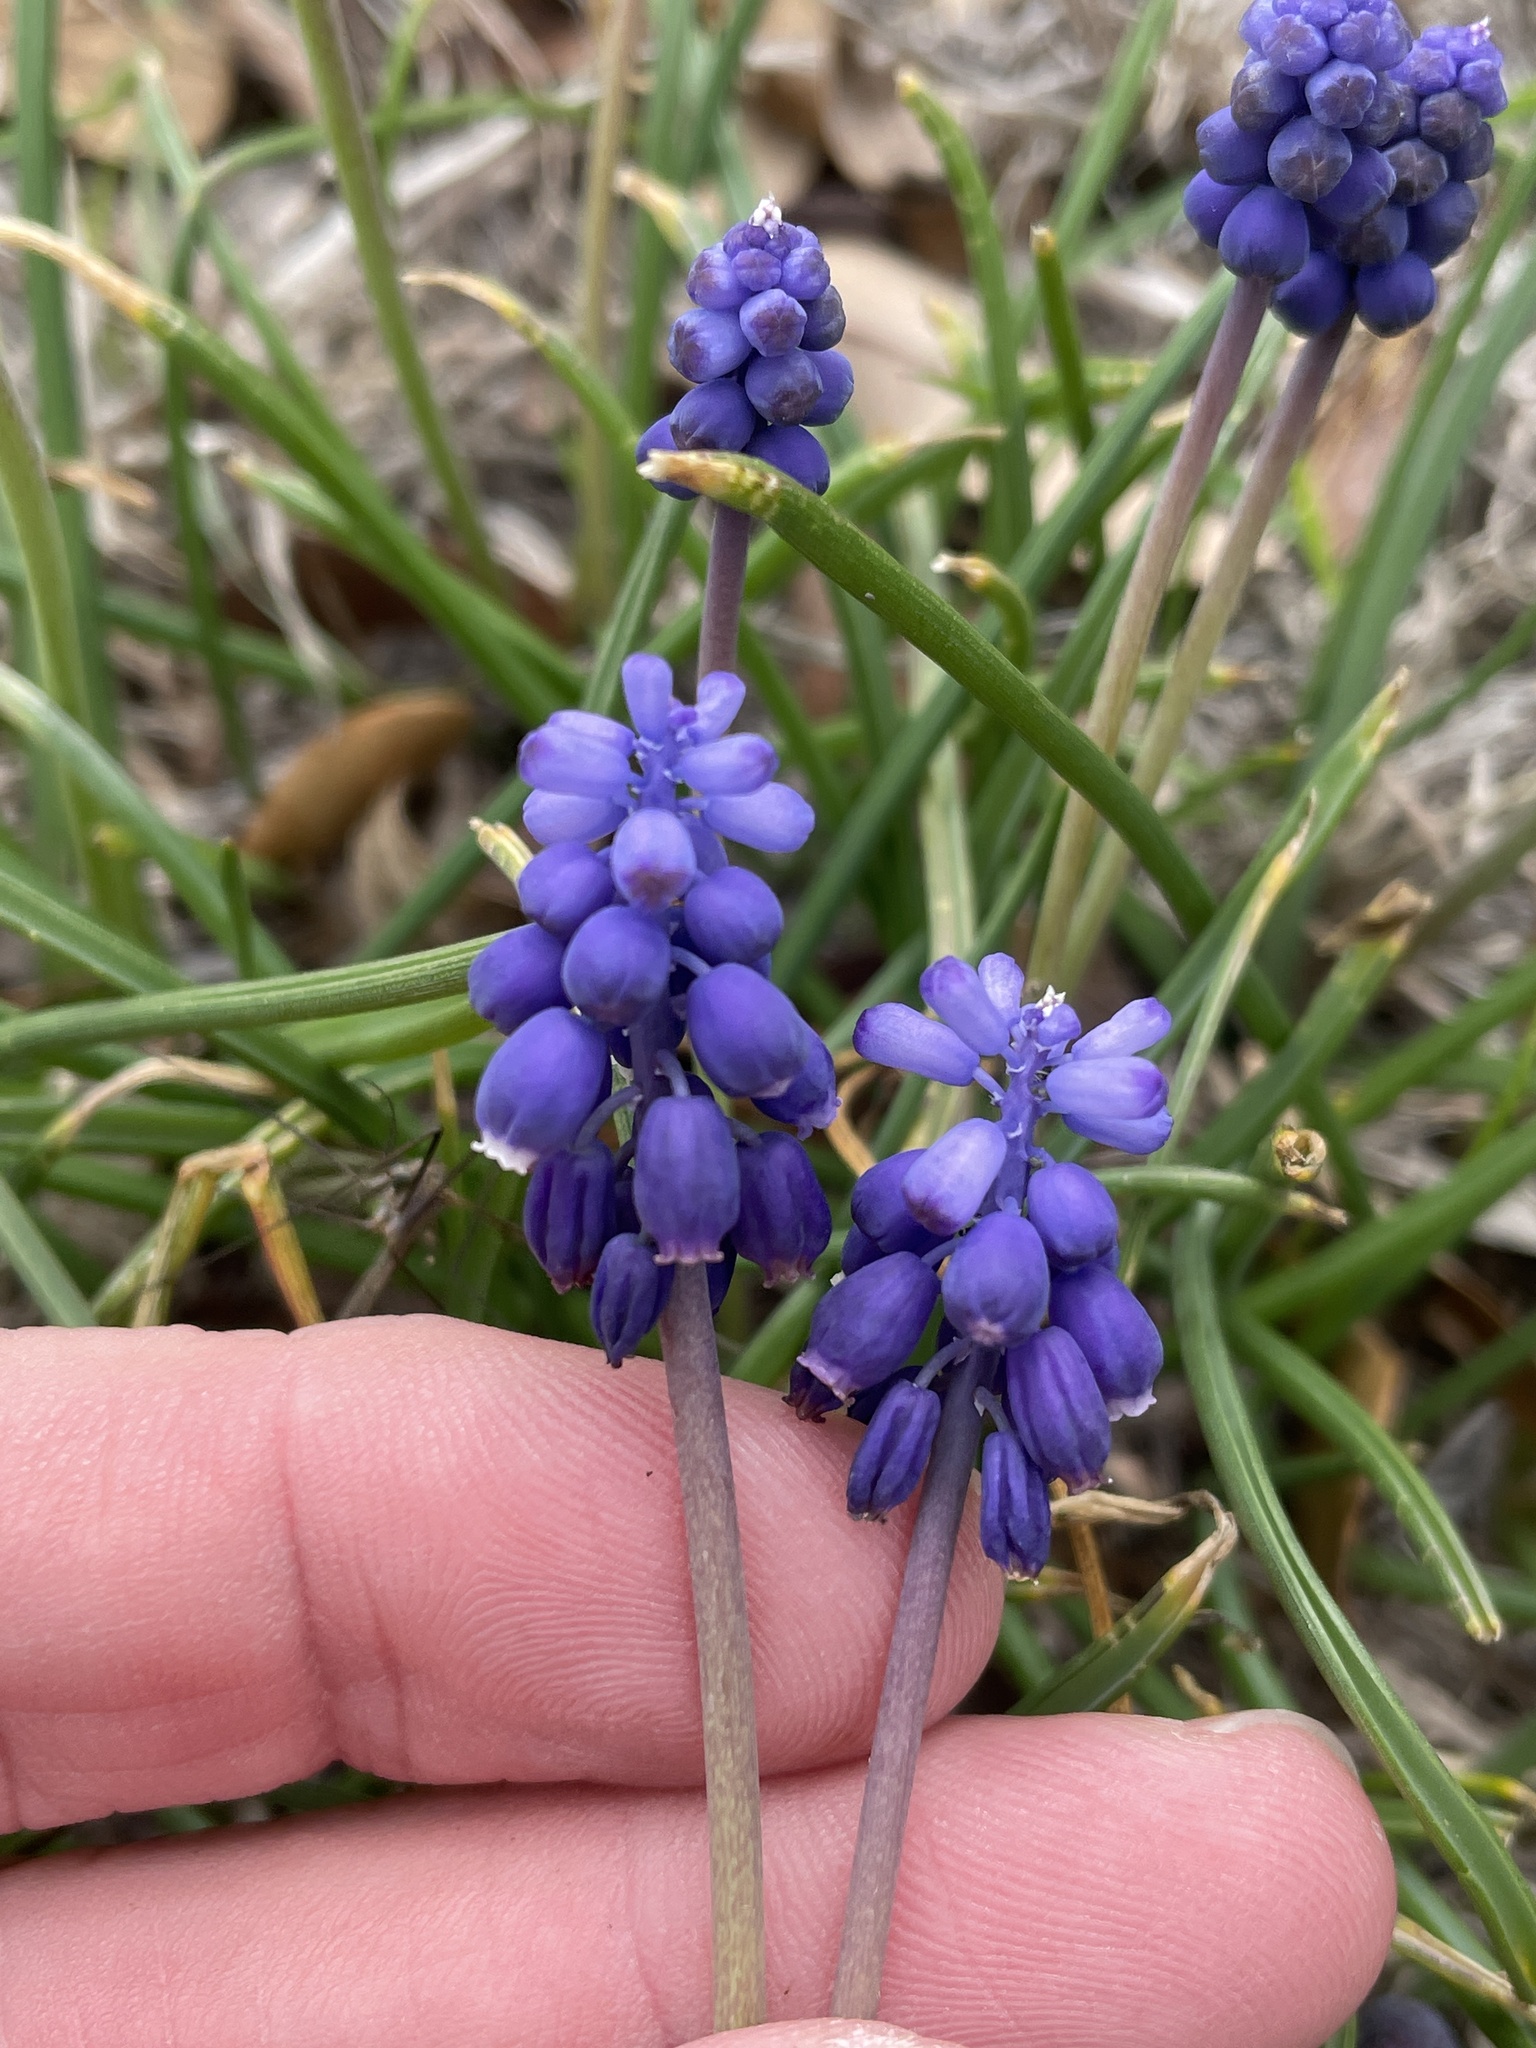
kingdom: Plantae
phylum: Tracheophyta
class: Liliopsida
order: Asparagales
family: Asparagaceae
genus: Muscari
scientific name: Muscari neglectum
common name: Grape-hyacinth
